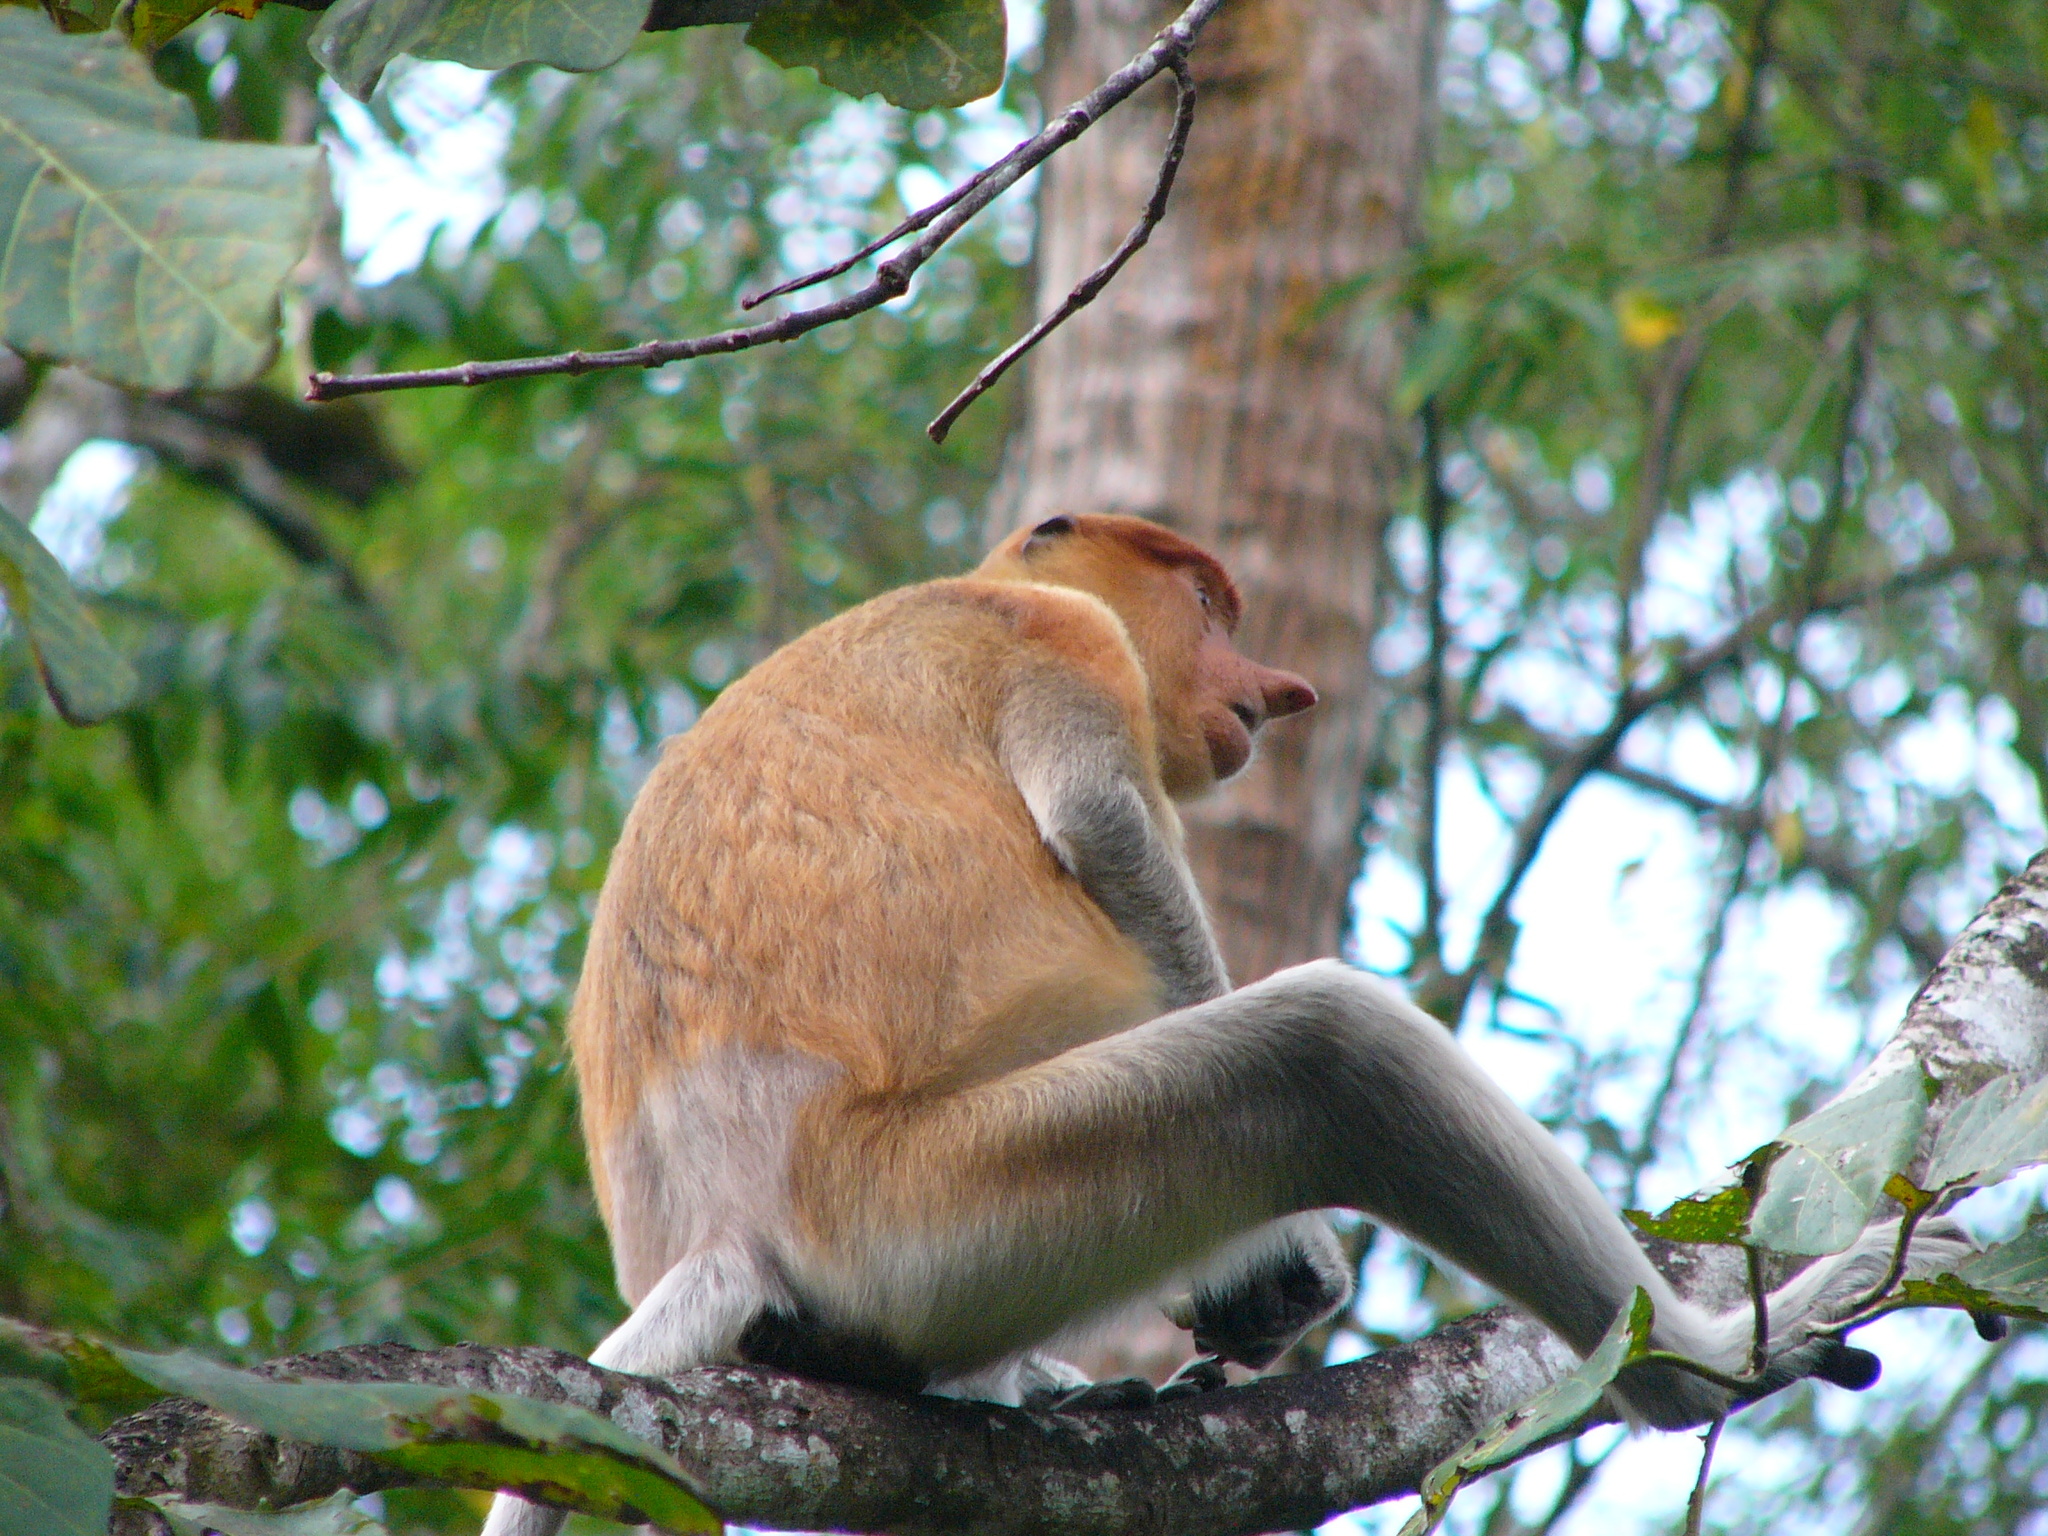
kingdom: Animalia
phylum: Chordata
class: Mammalia
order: Primates
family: Cercopithecidae
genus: Nasalis
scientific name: Nasalis larvatus
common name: Proboscis monkey
